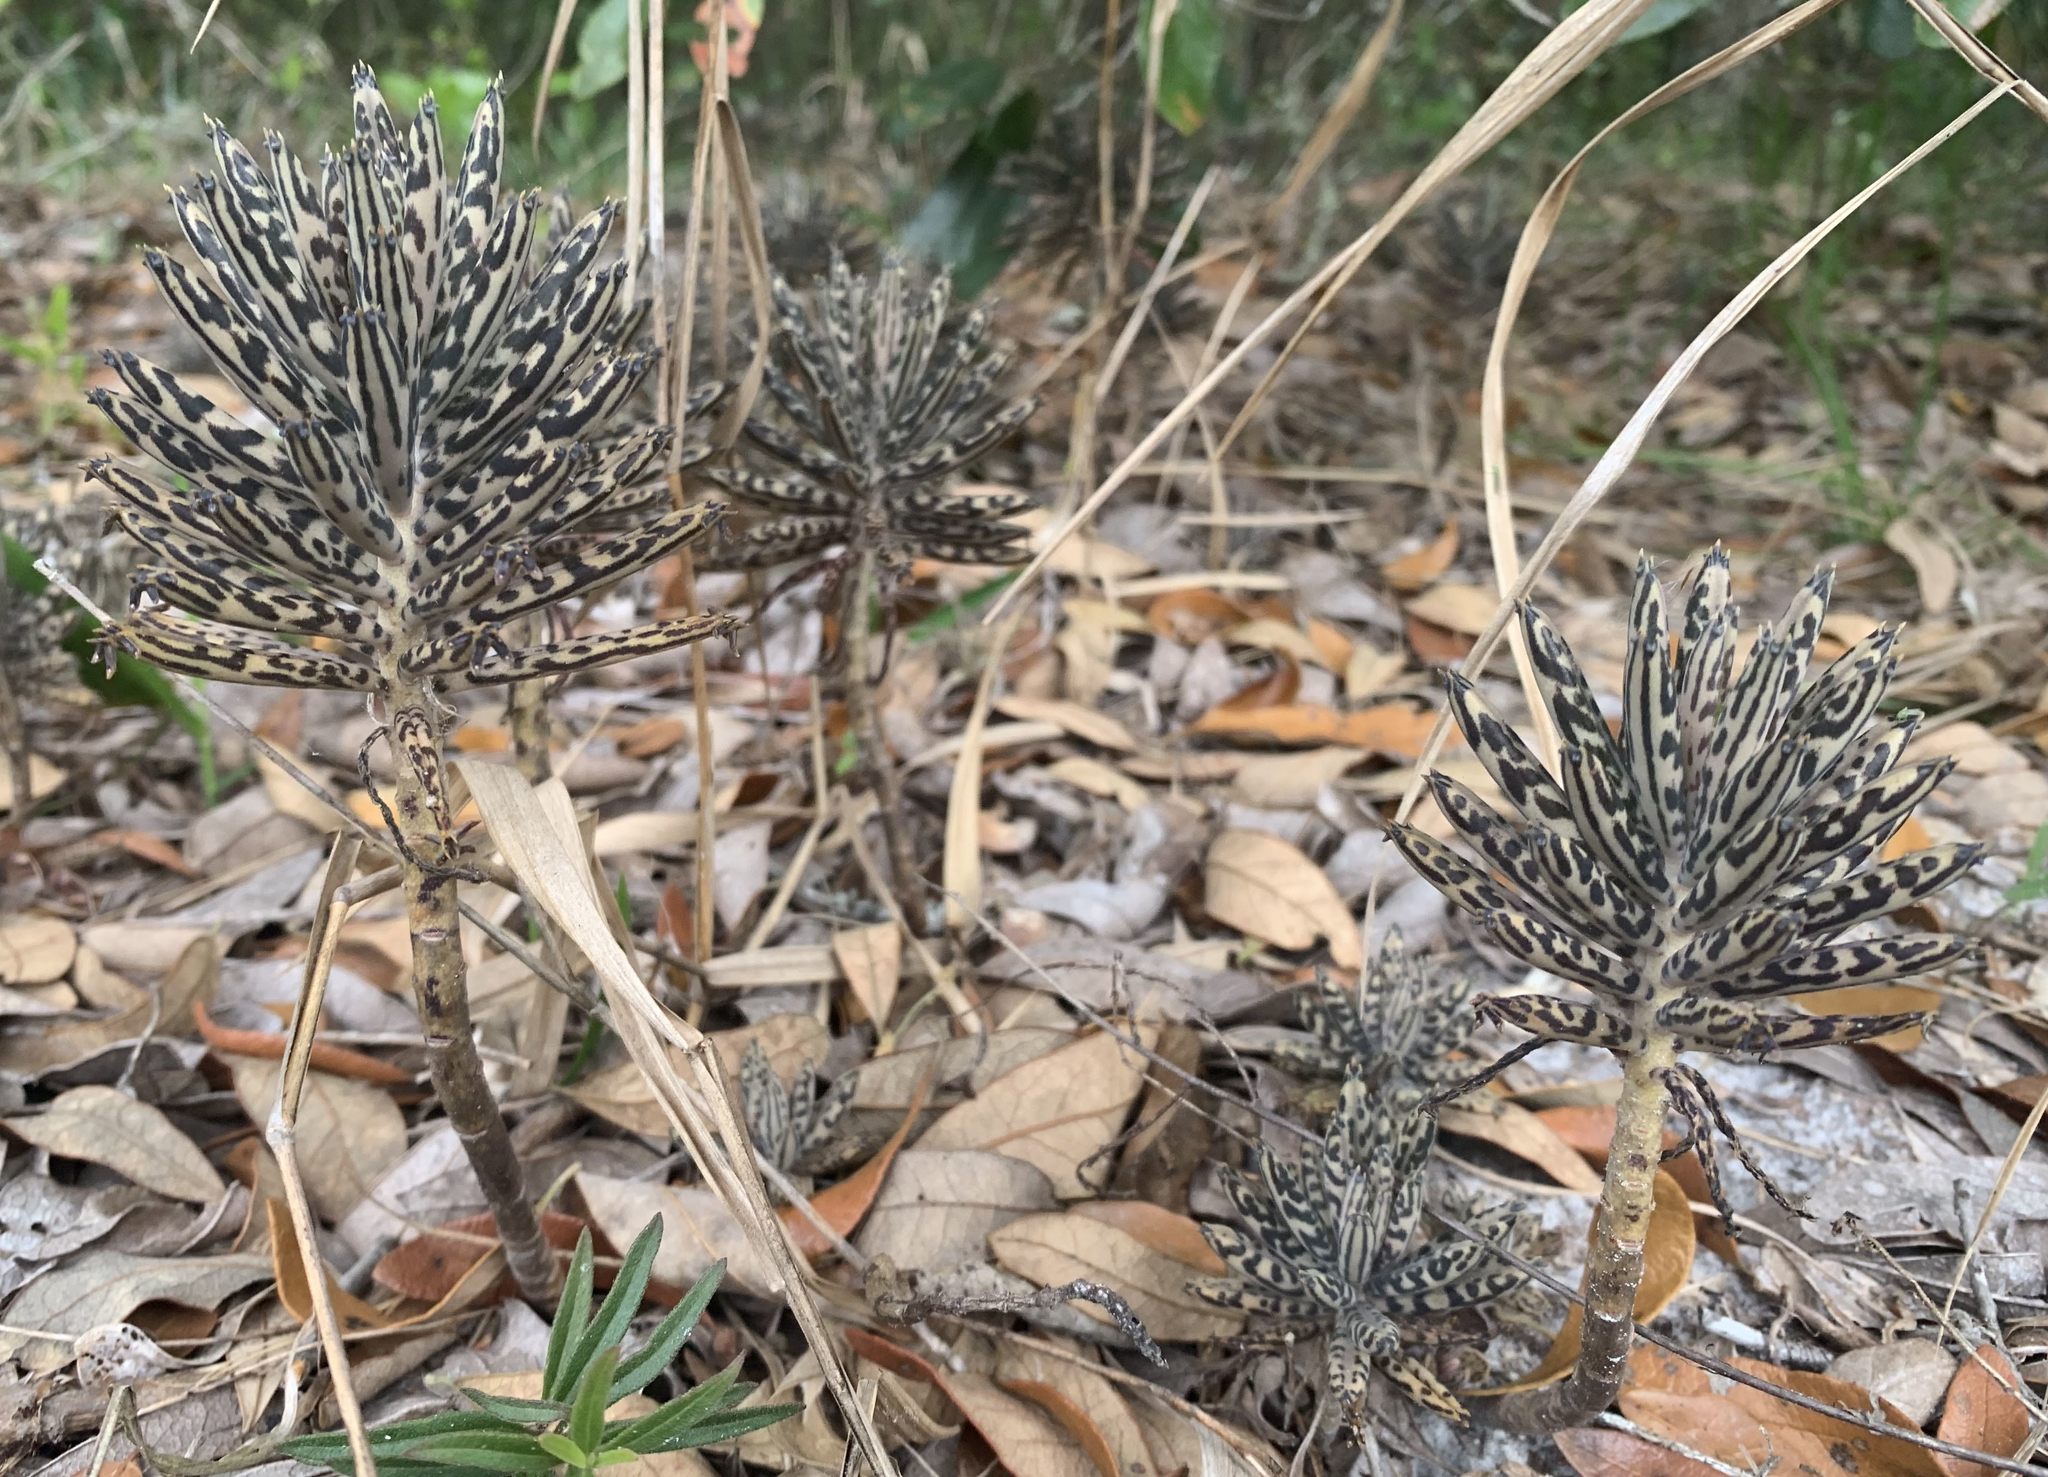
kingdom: Plantae
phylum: Tracheophyta
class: Magnoliopsida
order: Saxifragales
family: Crassulaceae
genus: Kalanchoe
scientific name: Kalanchoe delagoensis
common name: Chandelier plant
